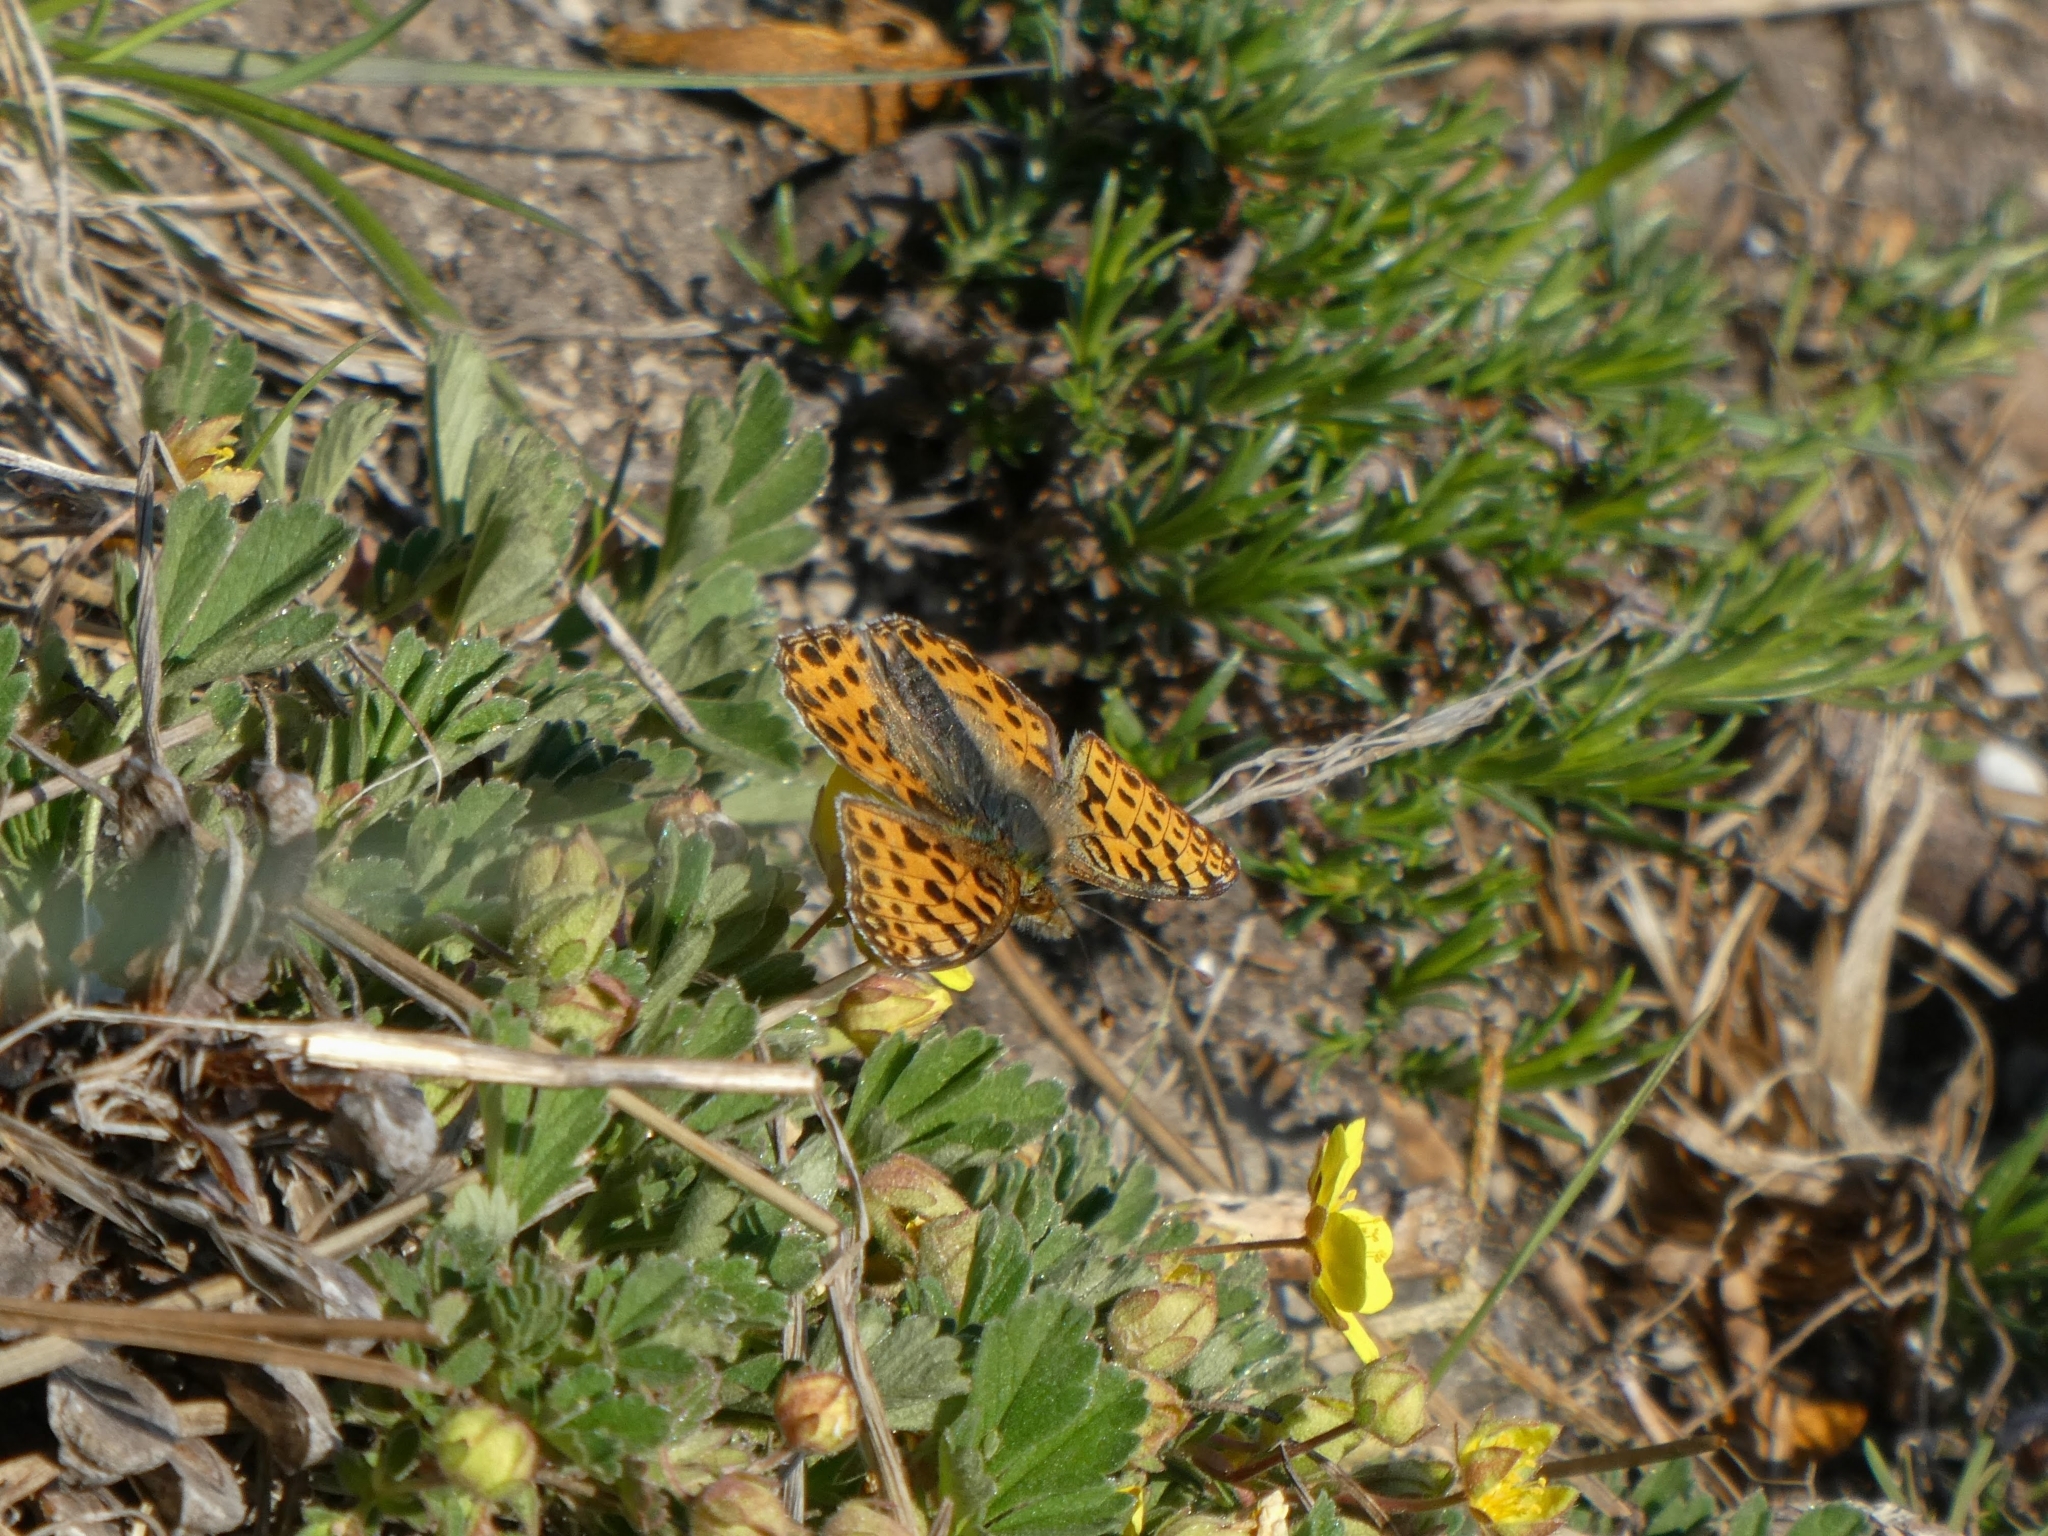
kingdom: Animalia
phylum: Arthropoda
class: Insecta
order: Lepidoptera
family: Nymphalidae
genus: Issoria
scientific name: Issoria lathonia
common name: Queen of spain fritillary
